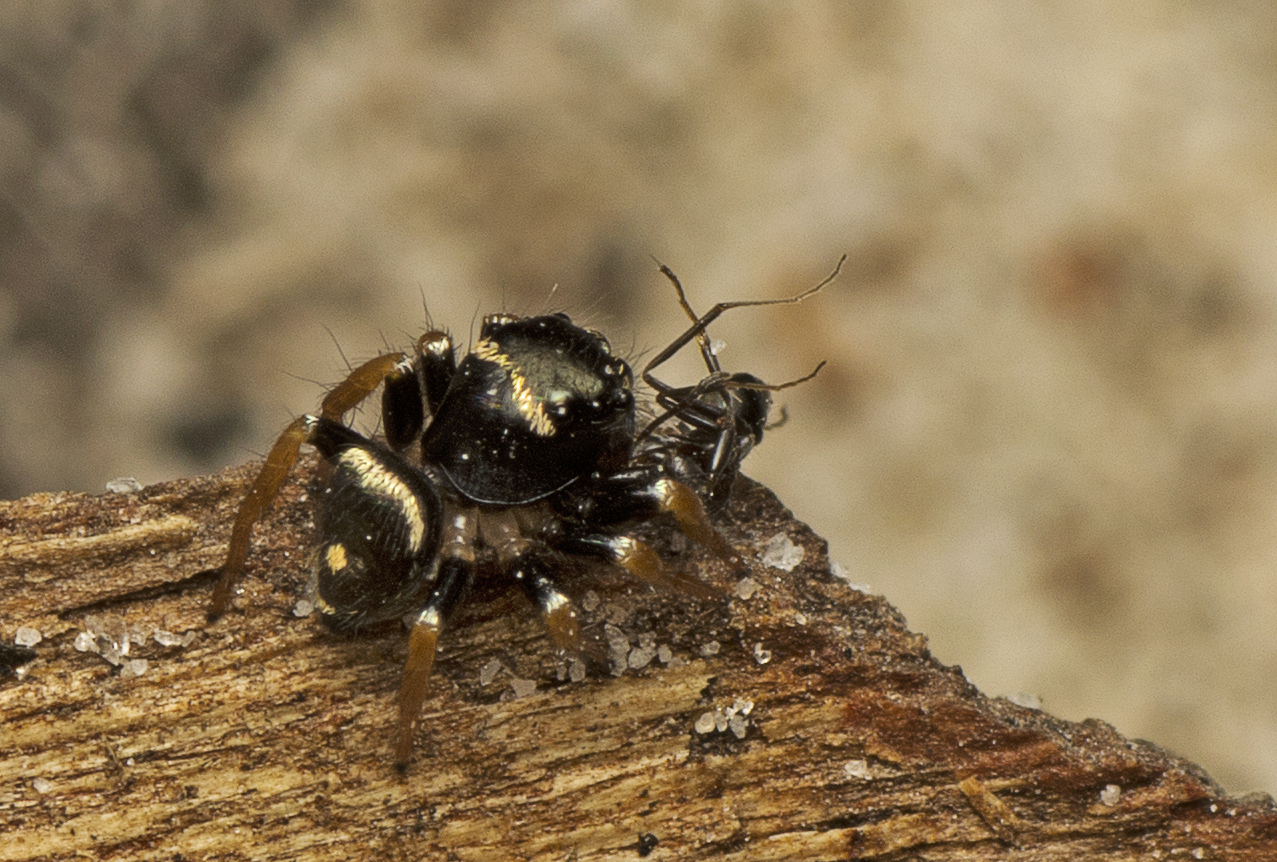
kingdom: Animalia
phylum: Arthropoda
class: Arachnida
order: Araneae
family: Salticidae
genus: Zenodorus
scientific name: Zenodorus orbiculatus
